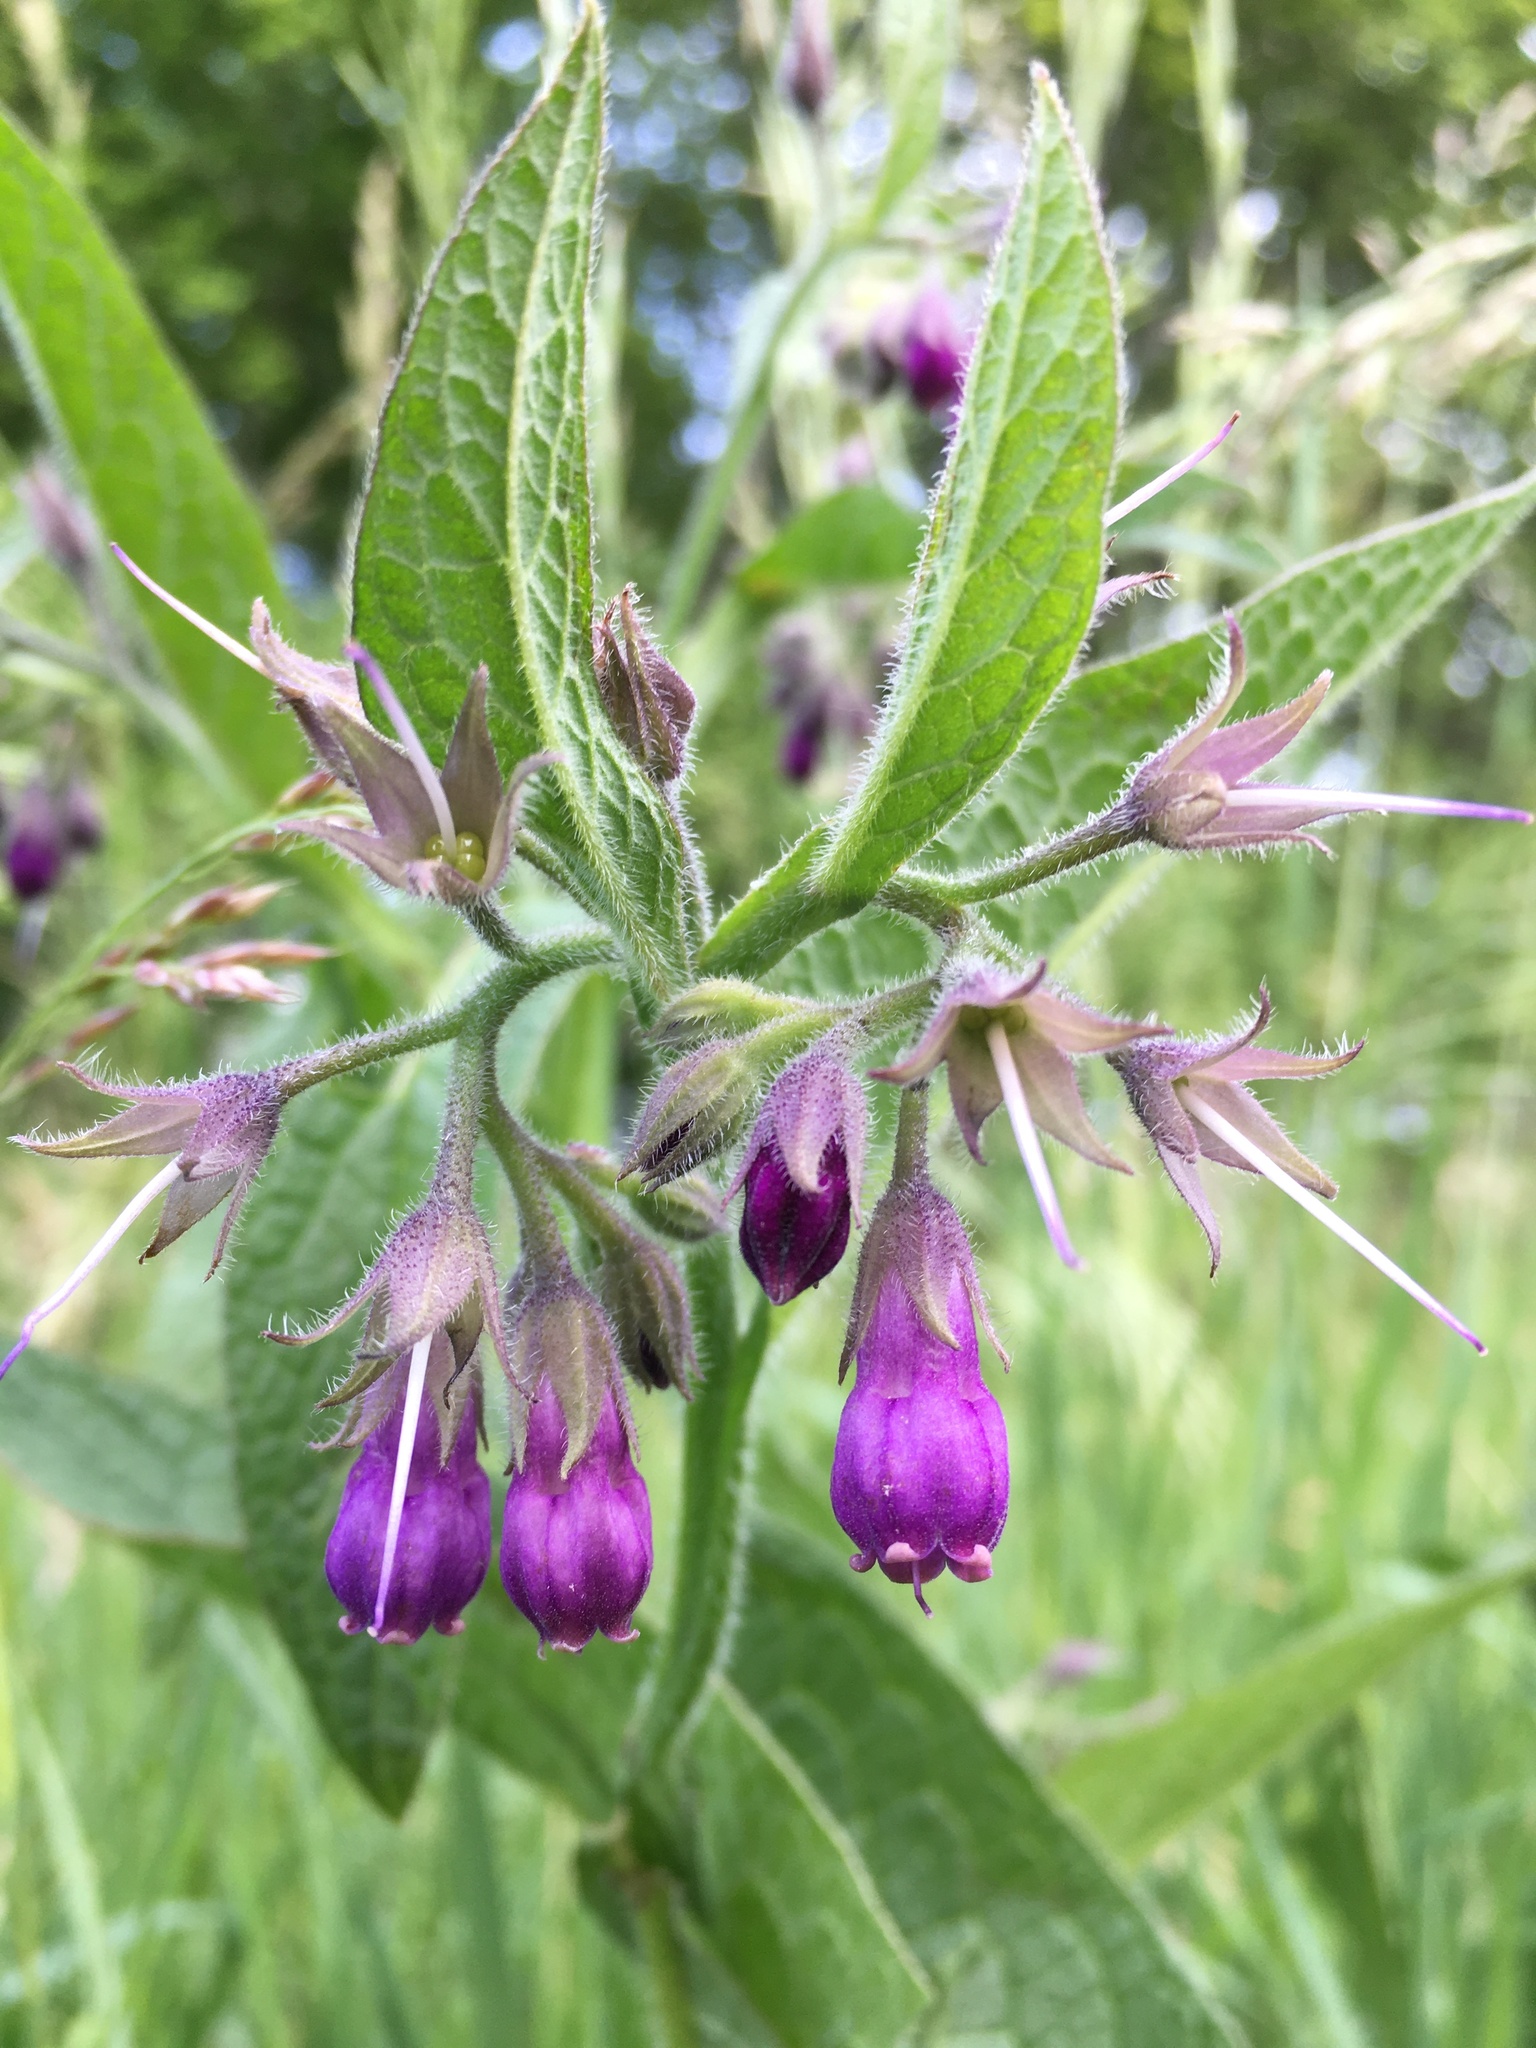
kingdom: Plantae
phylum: Tracheophyta
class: Magnoliopsida
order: Boraginales
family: Boraginaceae
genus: Symphytum
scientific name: Symphytum officinale
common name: Common comfrey
